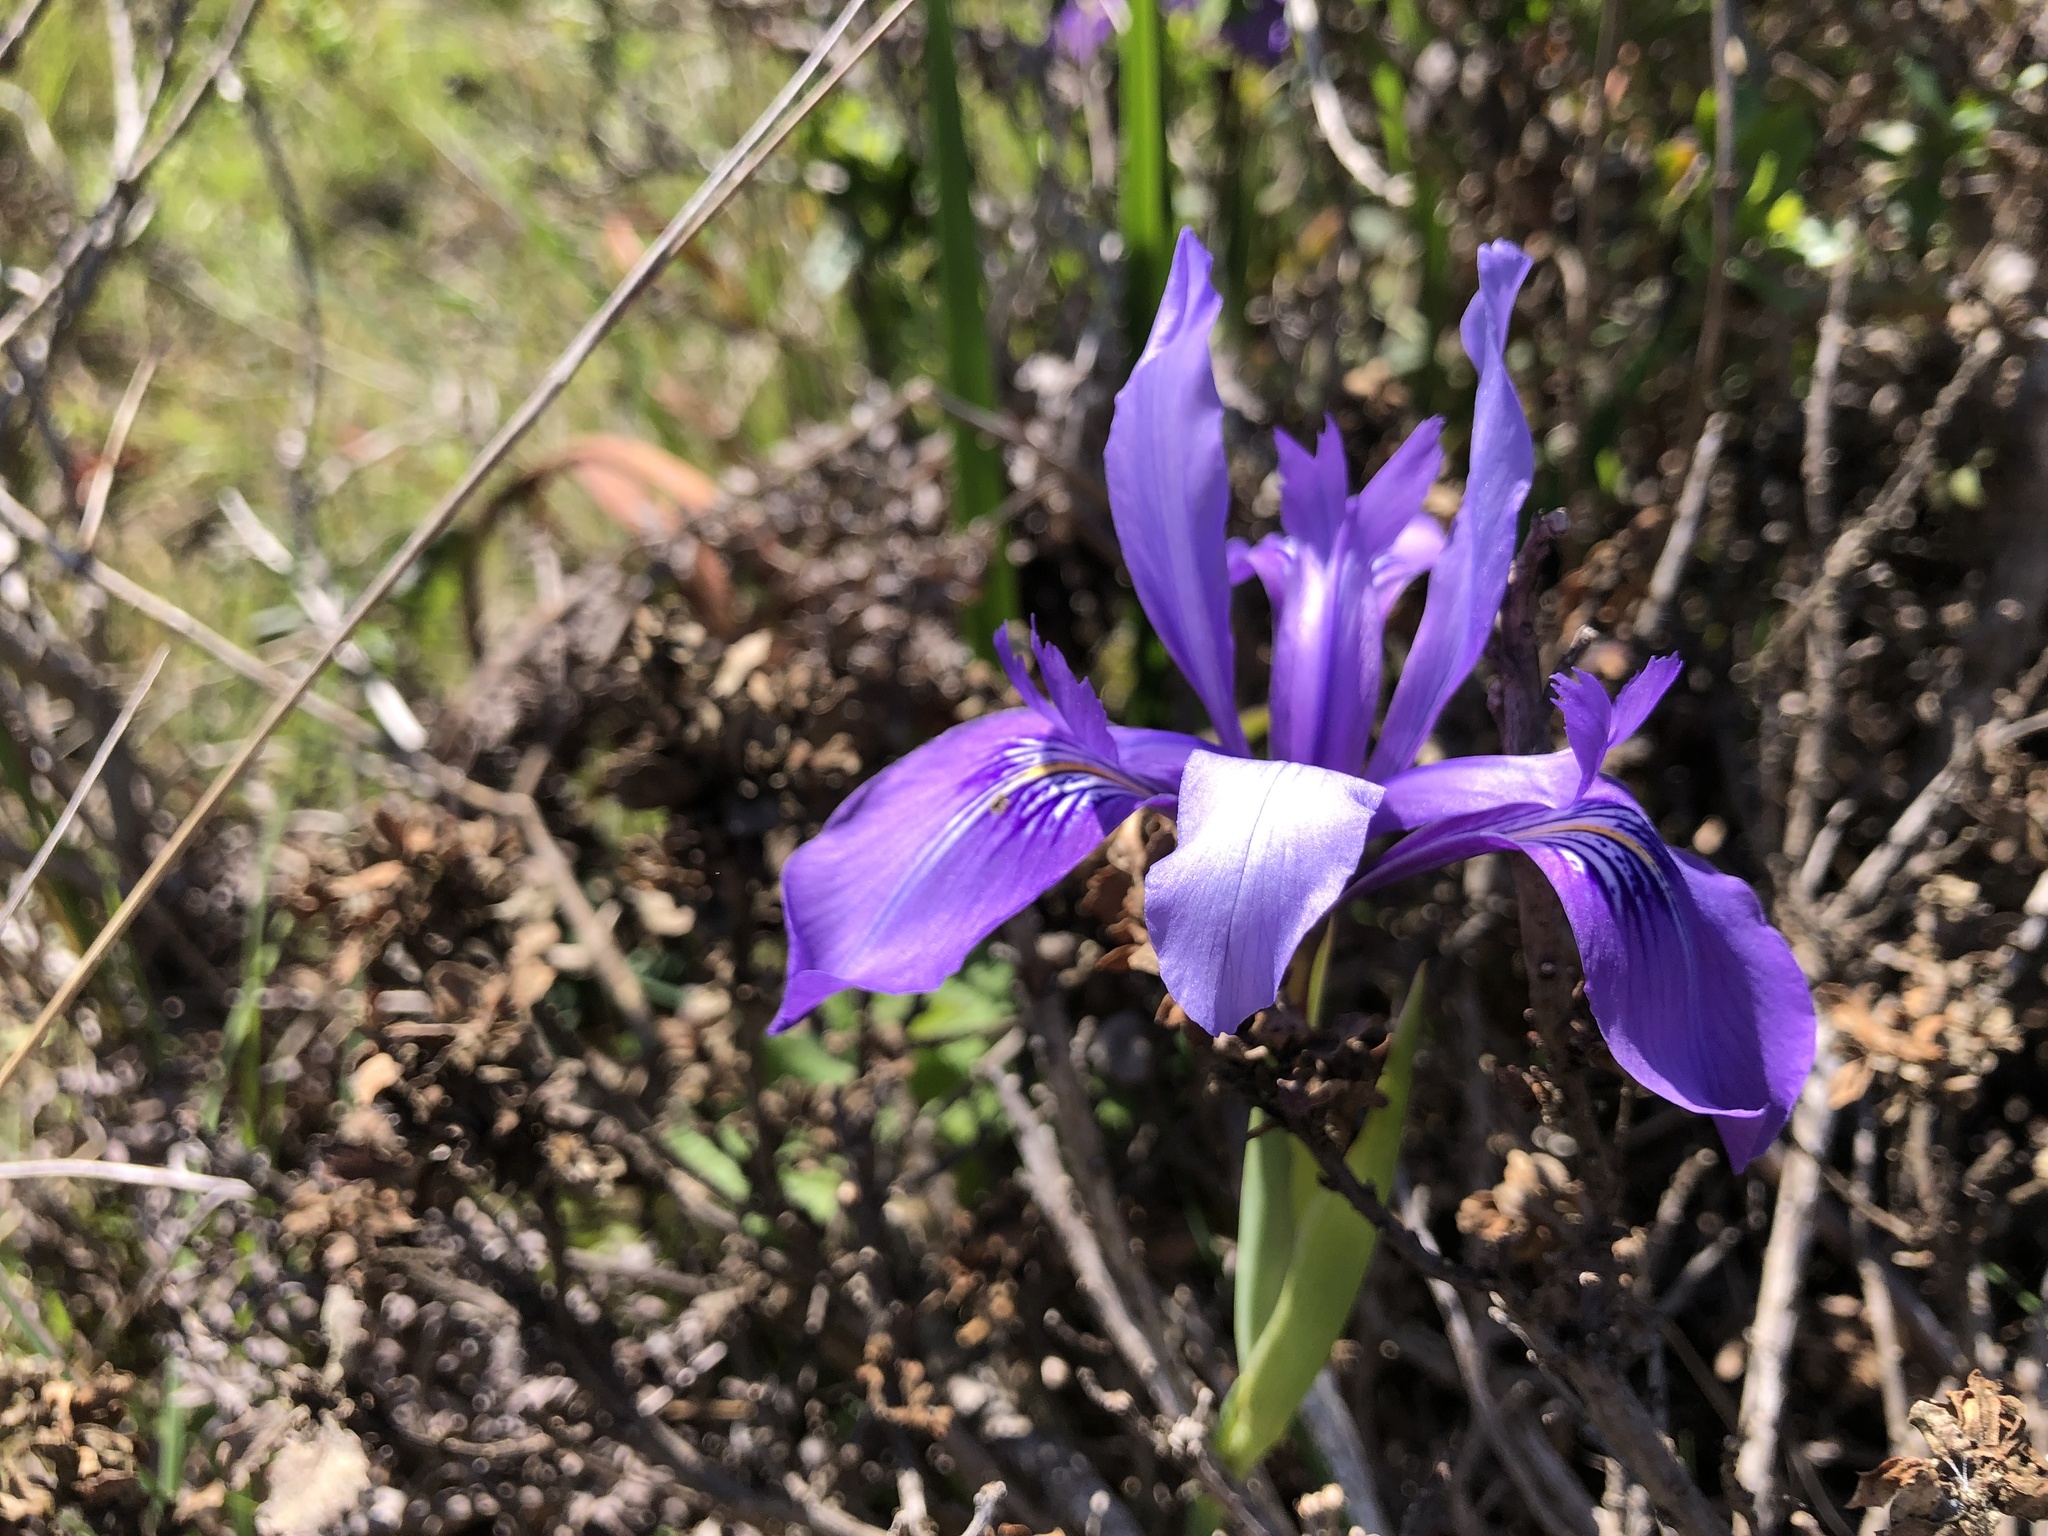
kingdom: Plantae
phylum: Tracheophyta
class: Liliopsida
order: Asparagales
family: Iridaceae
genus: Iris
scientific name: Iris douglasiana
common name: Marin iris
